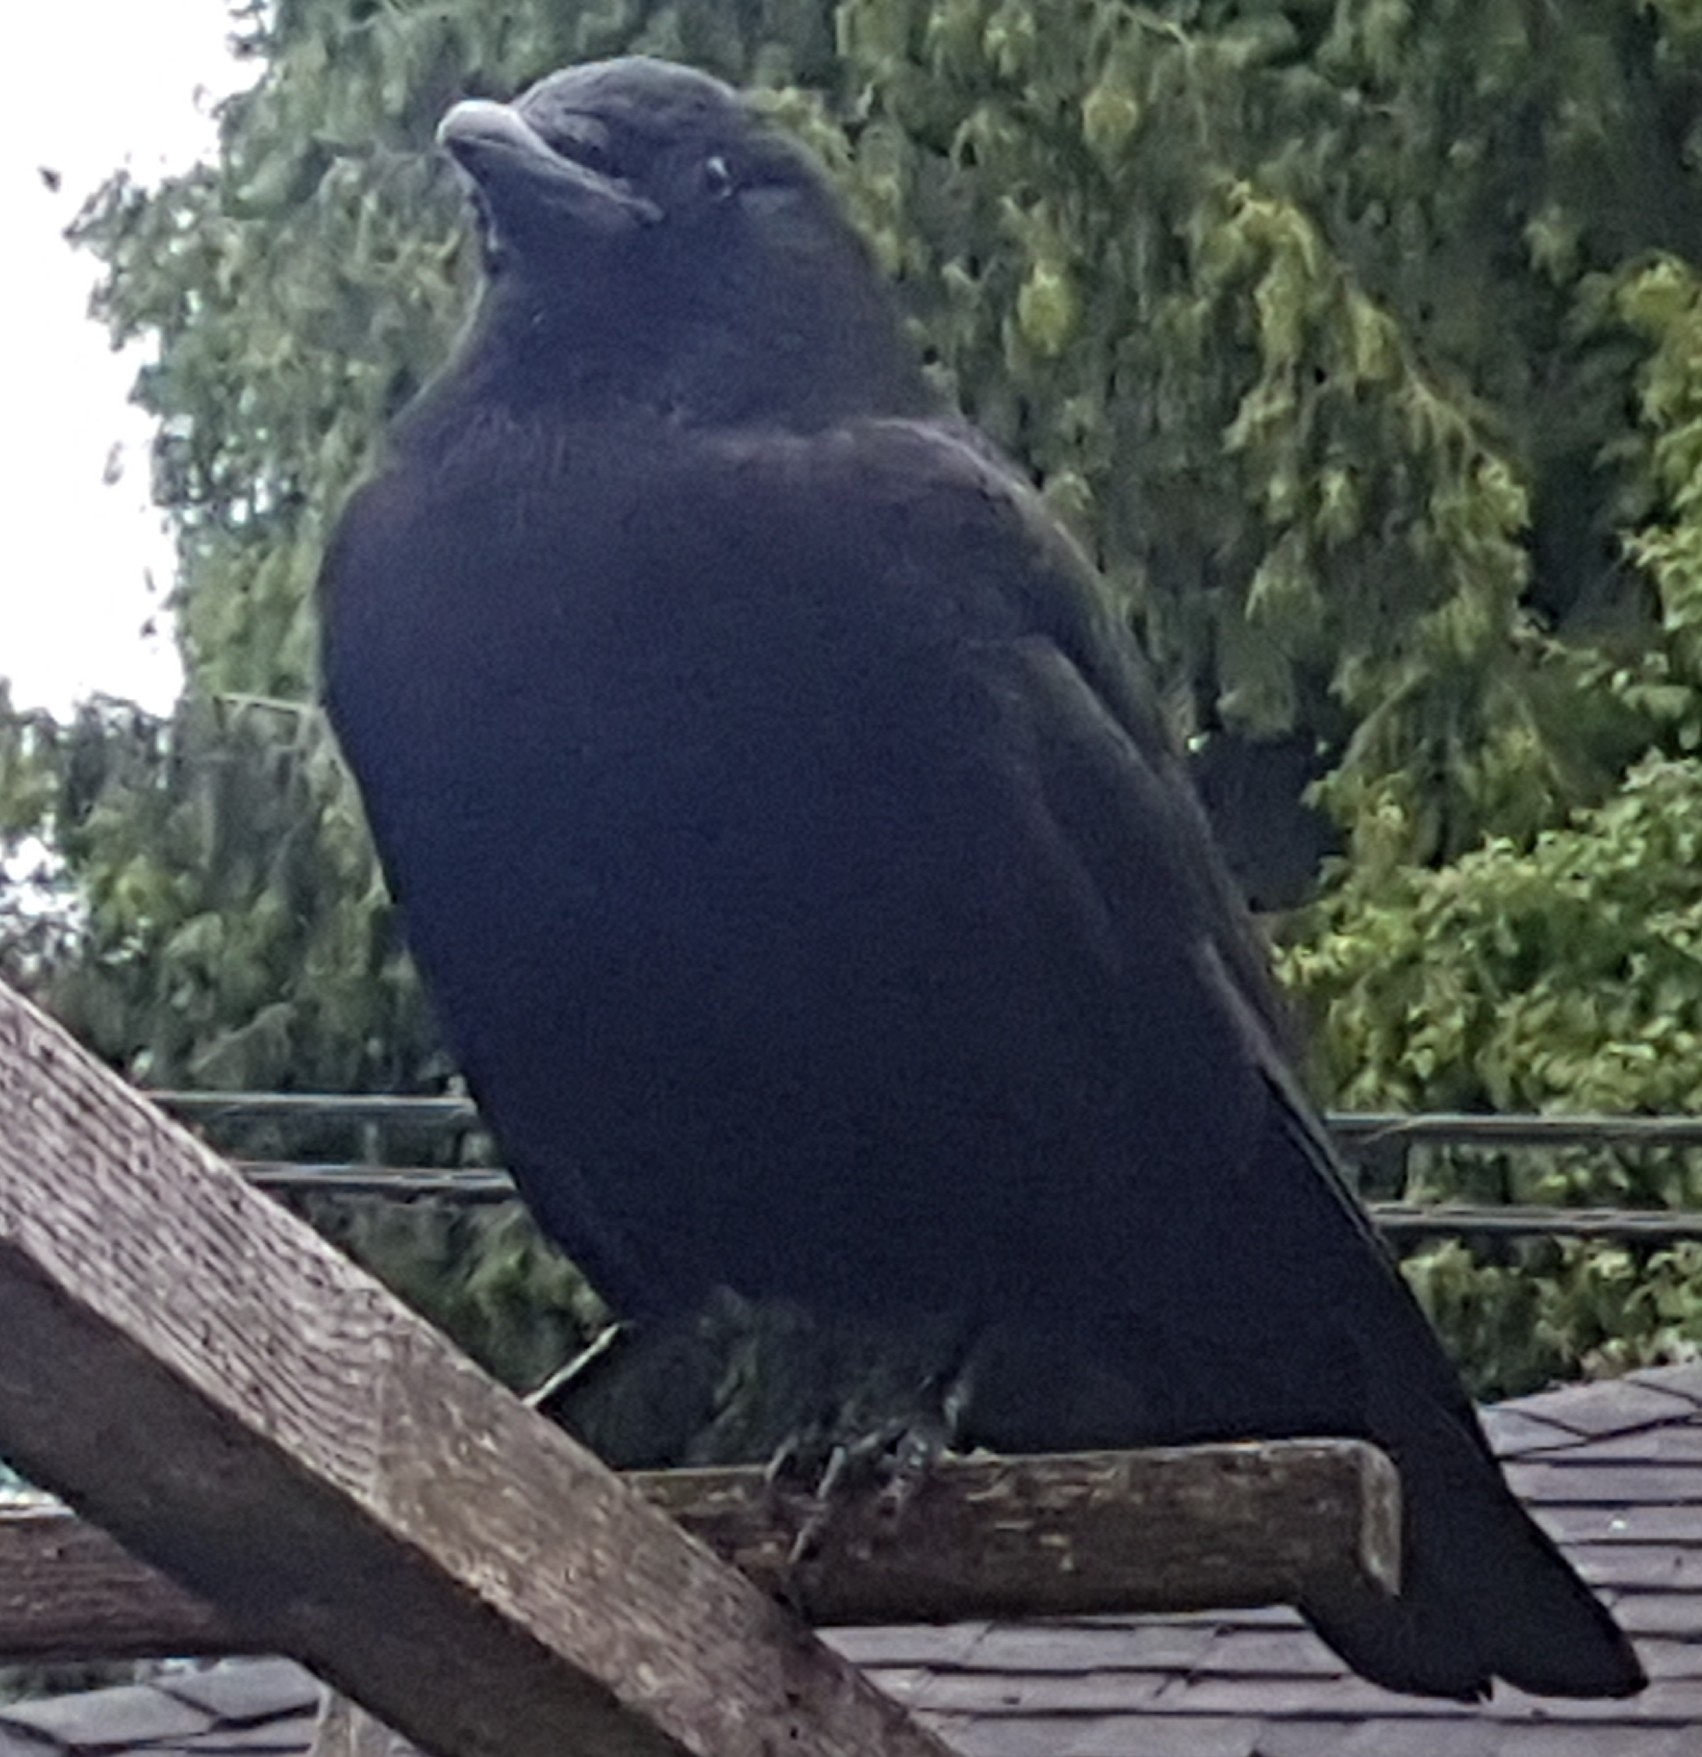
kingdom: Animalia
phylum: Chordata
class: Aves
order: Passeriformes
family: Corvidae
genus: Corvus
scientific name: Corvus brachyrhynchos
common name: American crow
